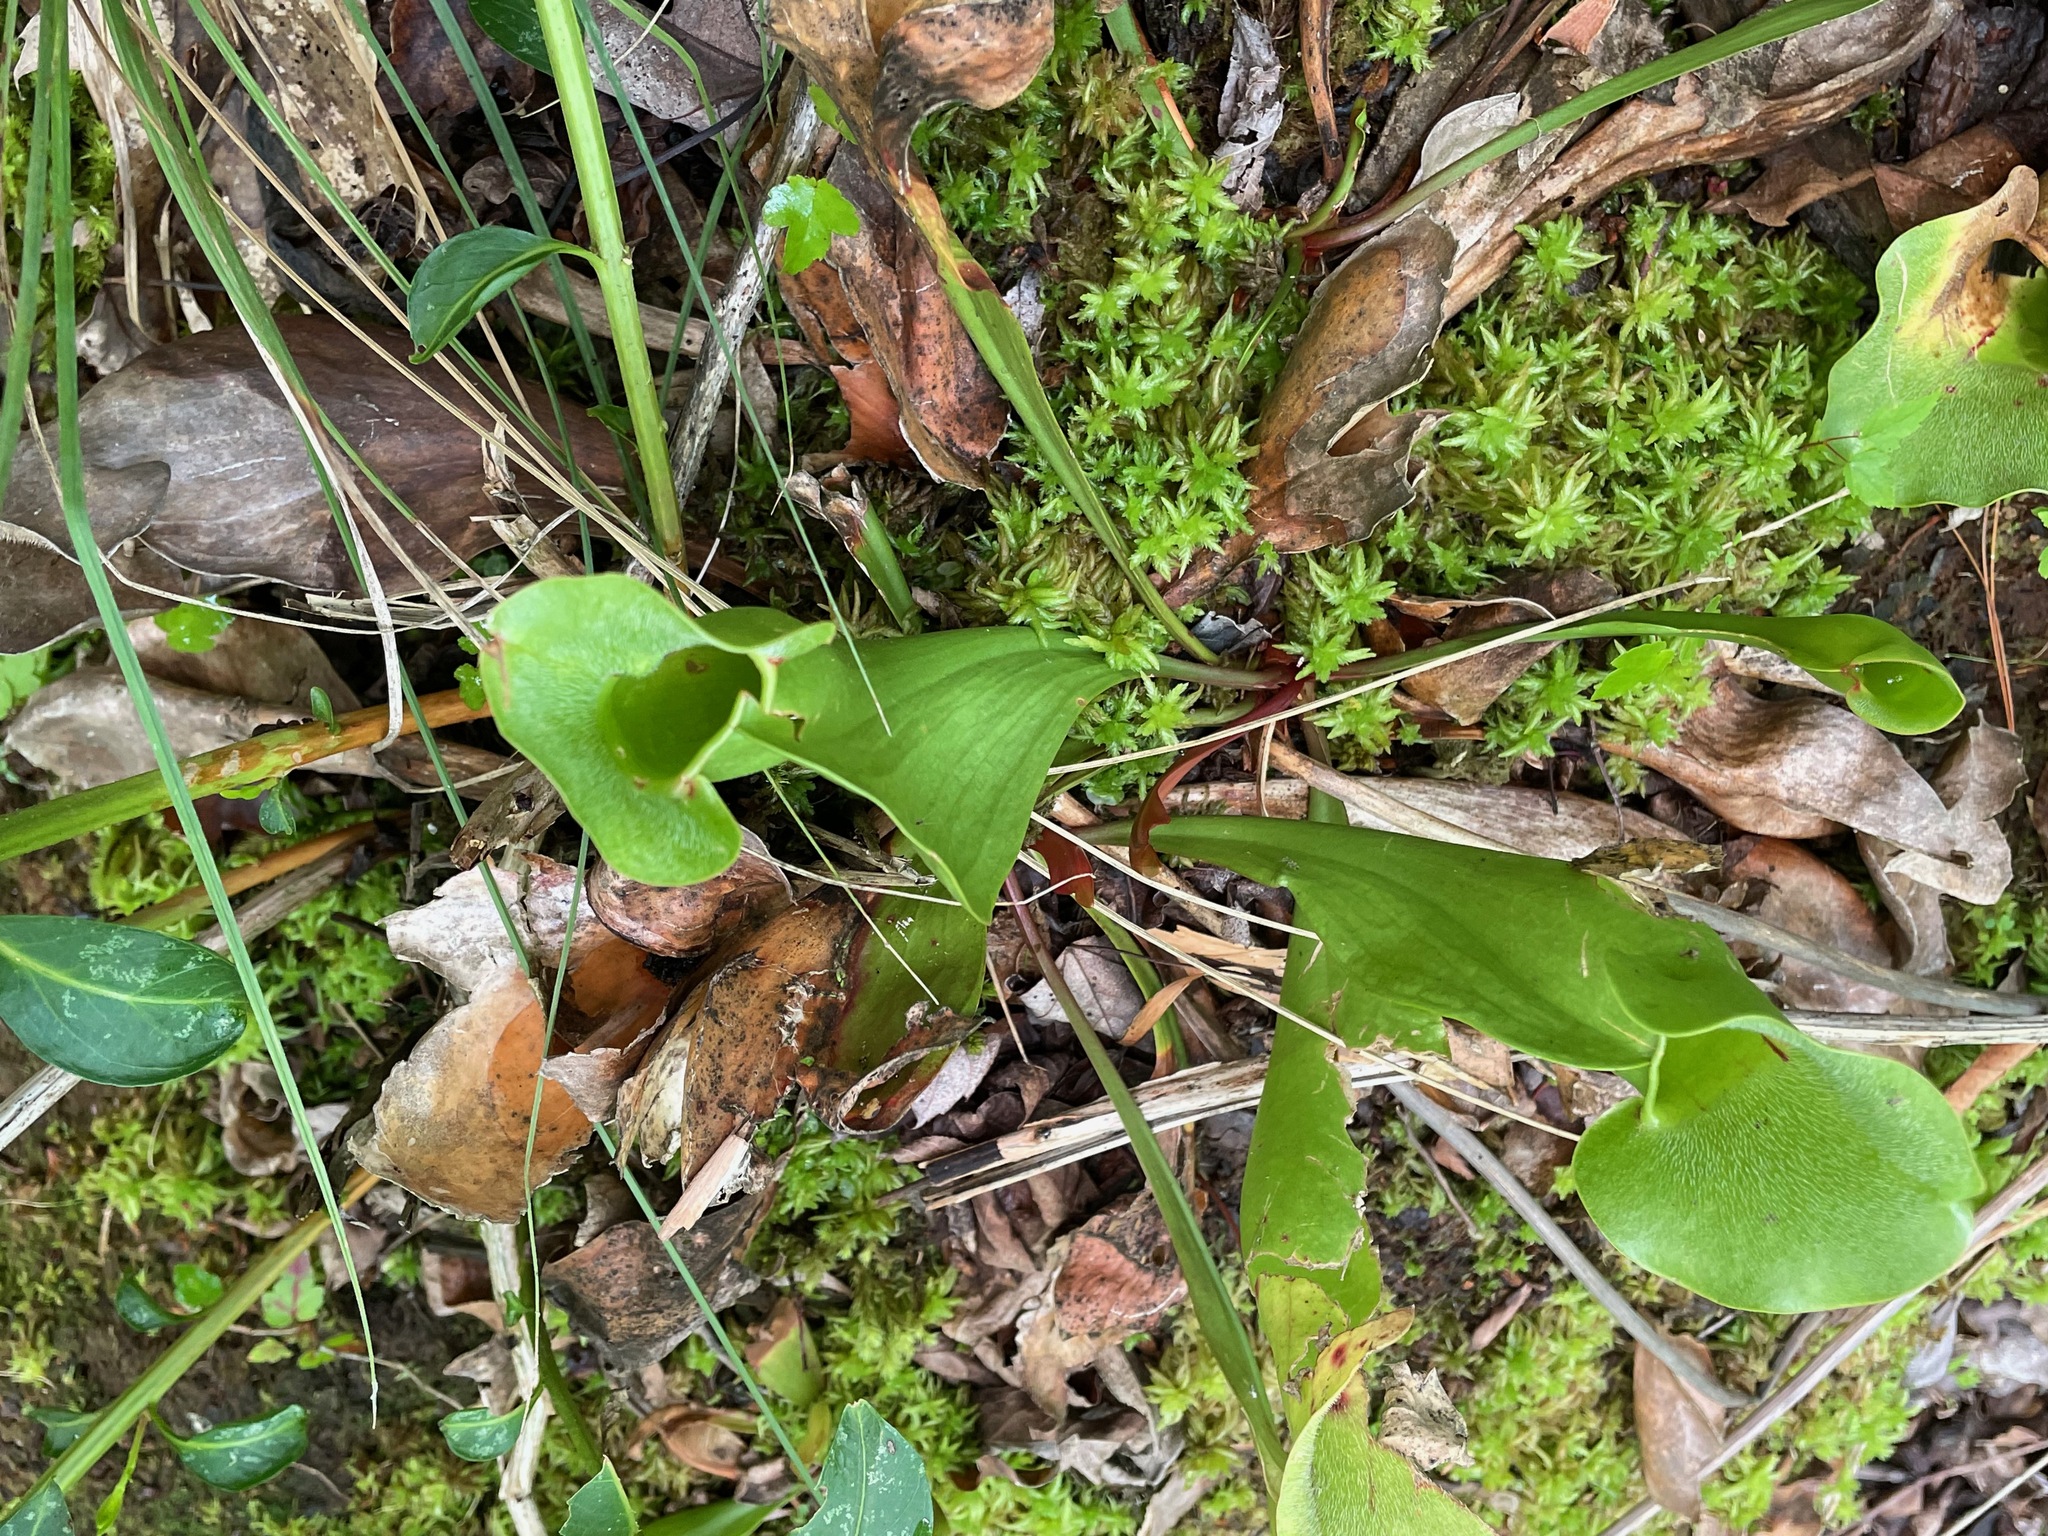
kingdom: Plantae
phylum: Tracheophyta
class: Magnoliopsida
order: Ericales
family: Sarraceniaceae
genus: Sarracenia
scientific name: Sarracenia purpurea
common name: Pitcherplant
